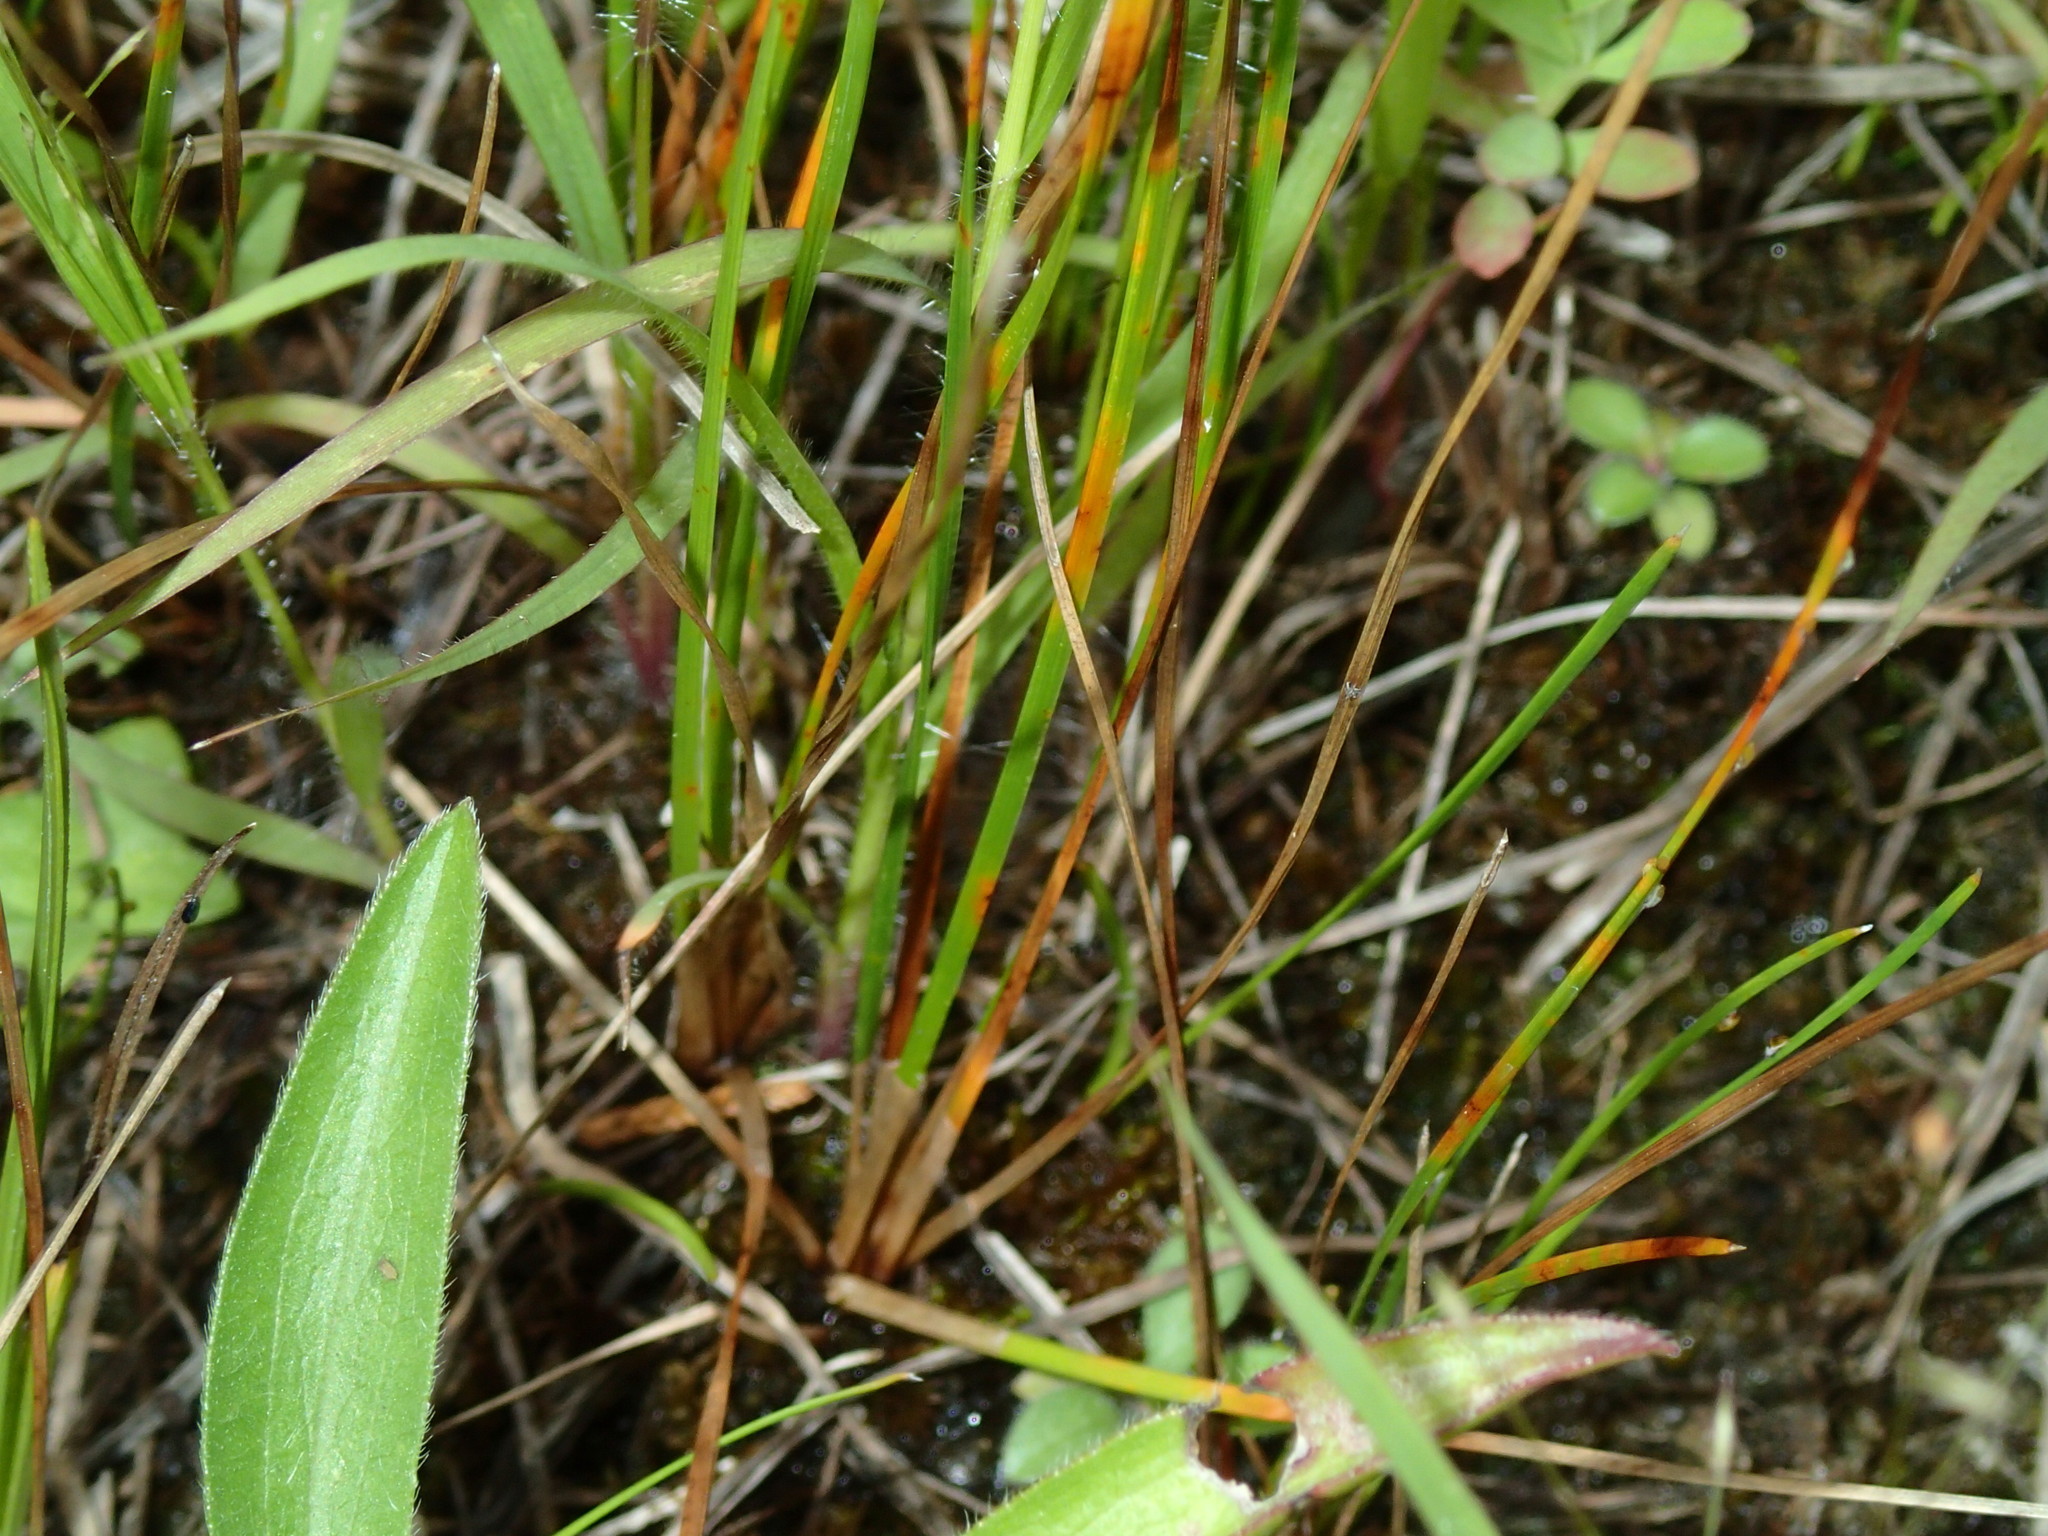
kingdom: Plantae
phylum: Tracheophyta
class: Liliopsida
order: Poales
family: Poaceae
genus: Panicum
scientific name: Panicum flexile
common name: Wiry panicgrass
